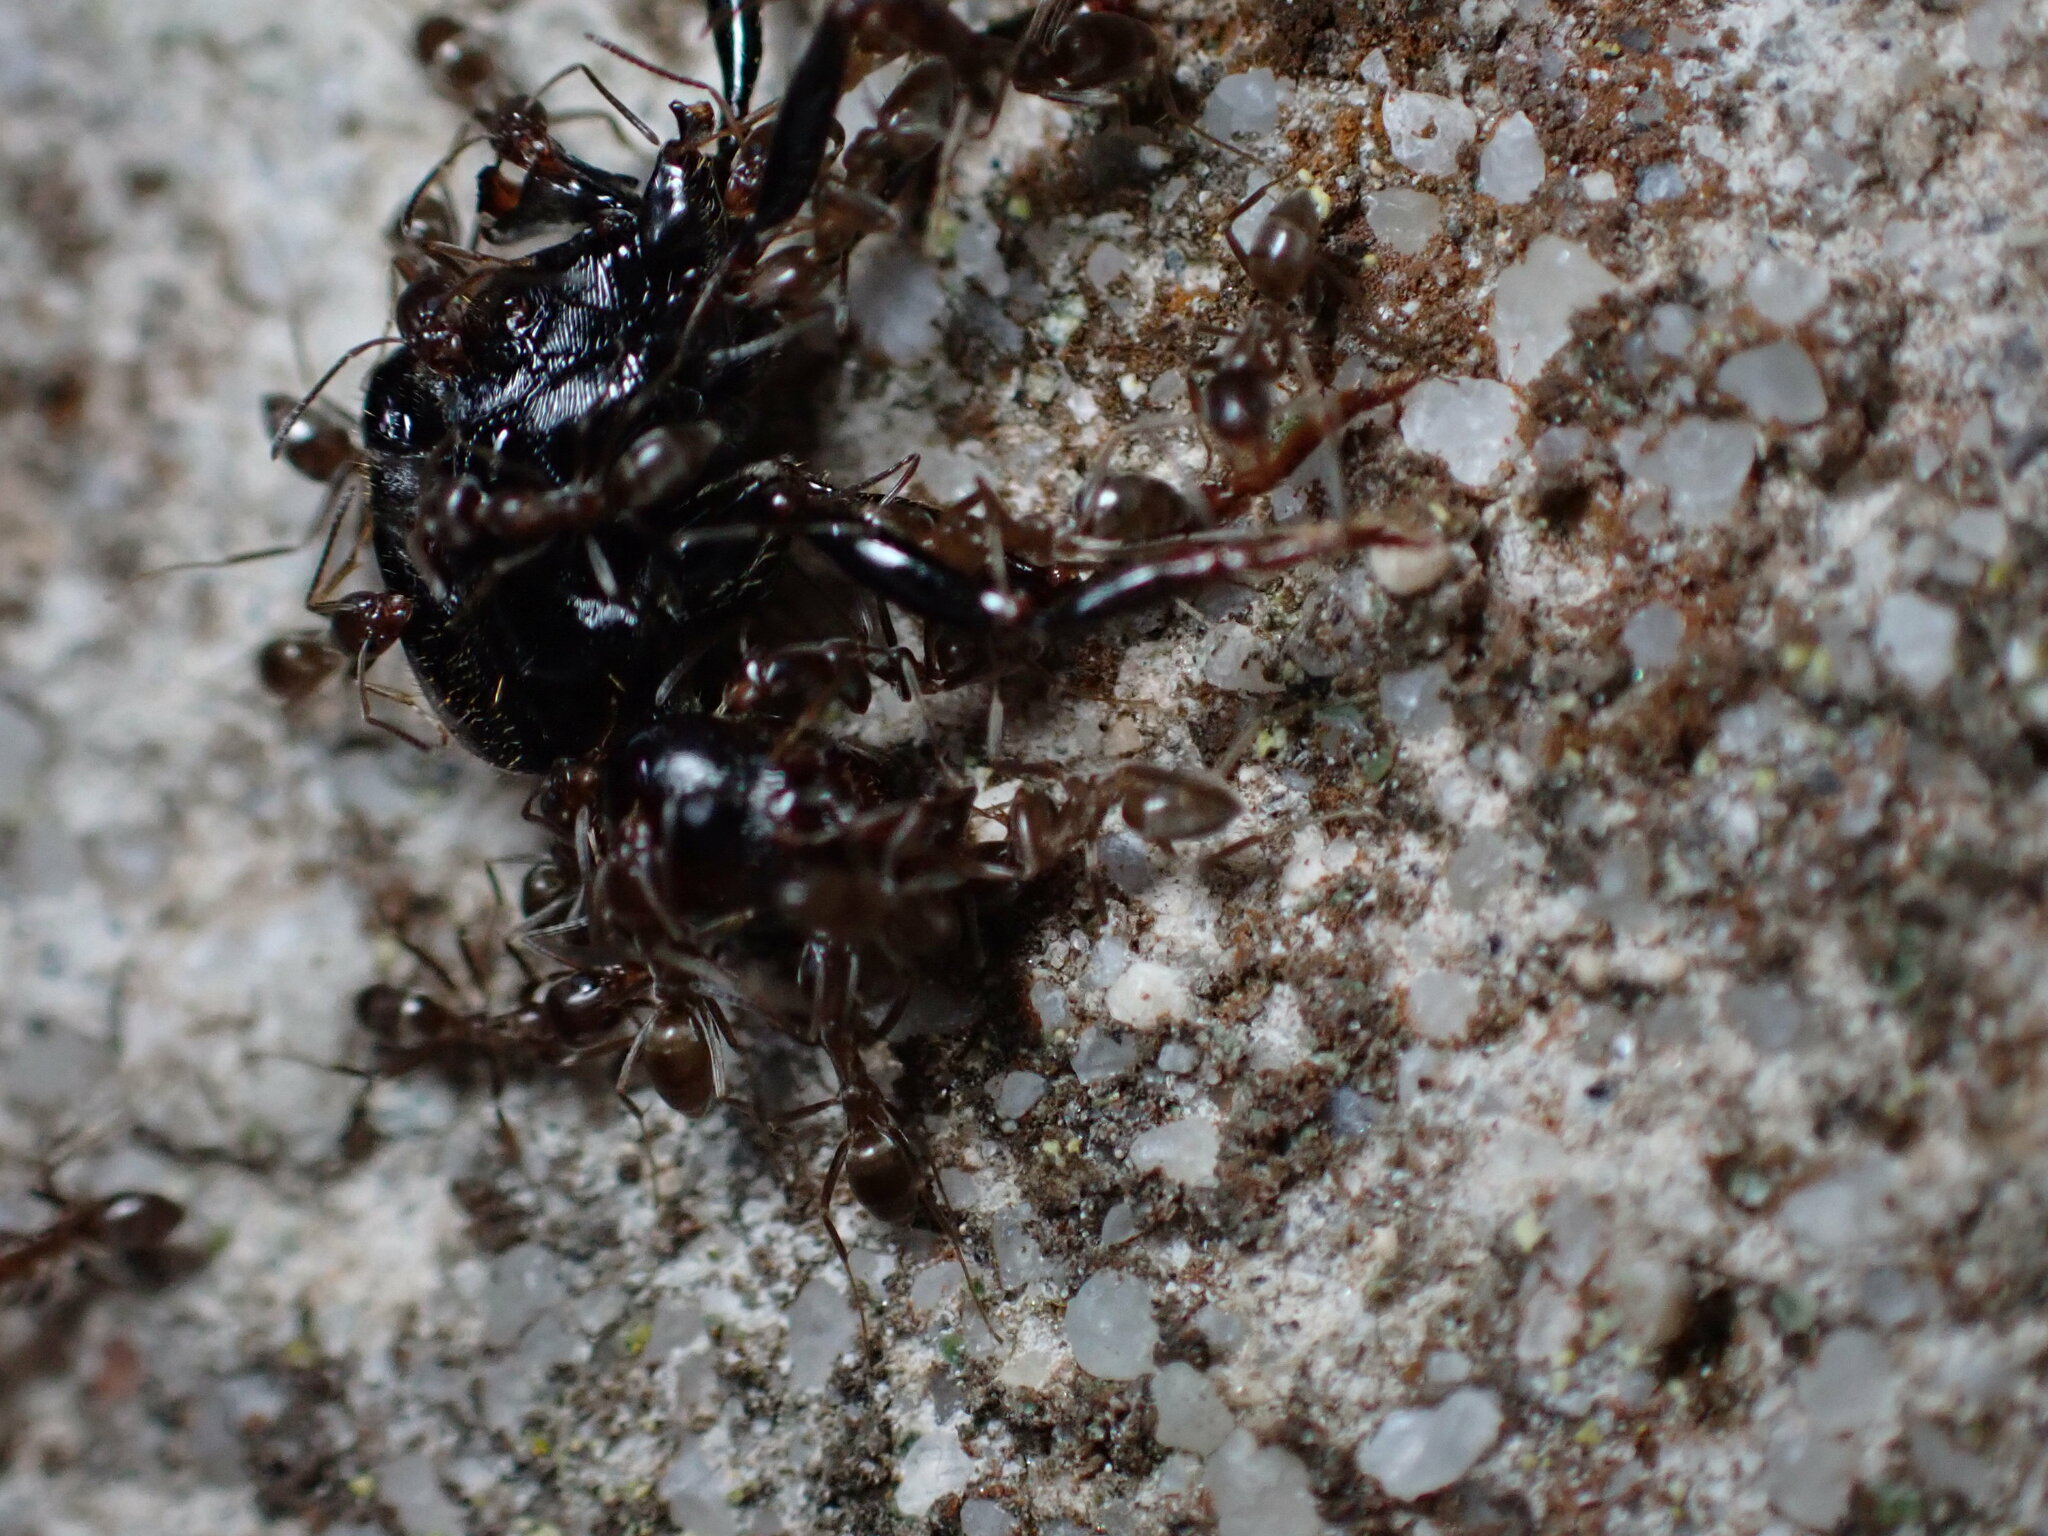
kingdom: Animalia
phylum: Arthropoda
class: Insecta
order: Hymenoptera
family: Formicidae
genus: Linepithema
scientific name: Linepithema humile
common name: Argentine ant
